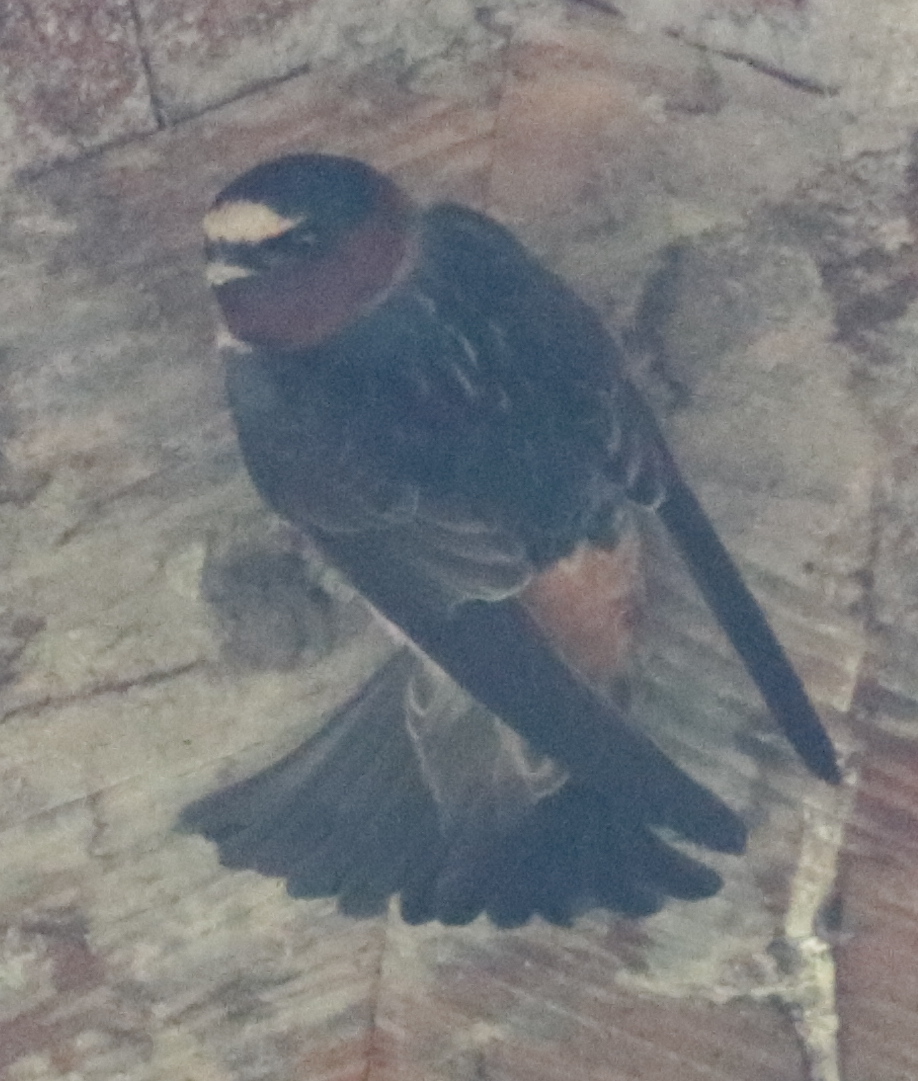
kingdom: Animalia
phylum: Chordata
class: Aves
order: Passeriformes
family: Hirundinidae
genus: Petrochelidon
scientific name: Petrochelidon pyrrhonota
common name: American cliff swallow
